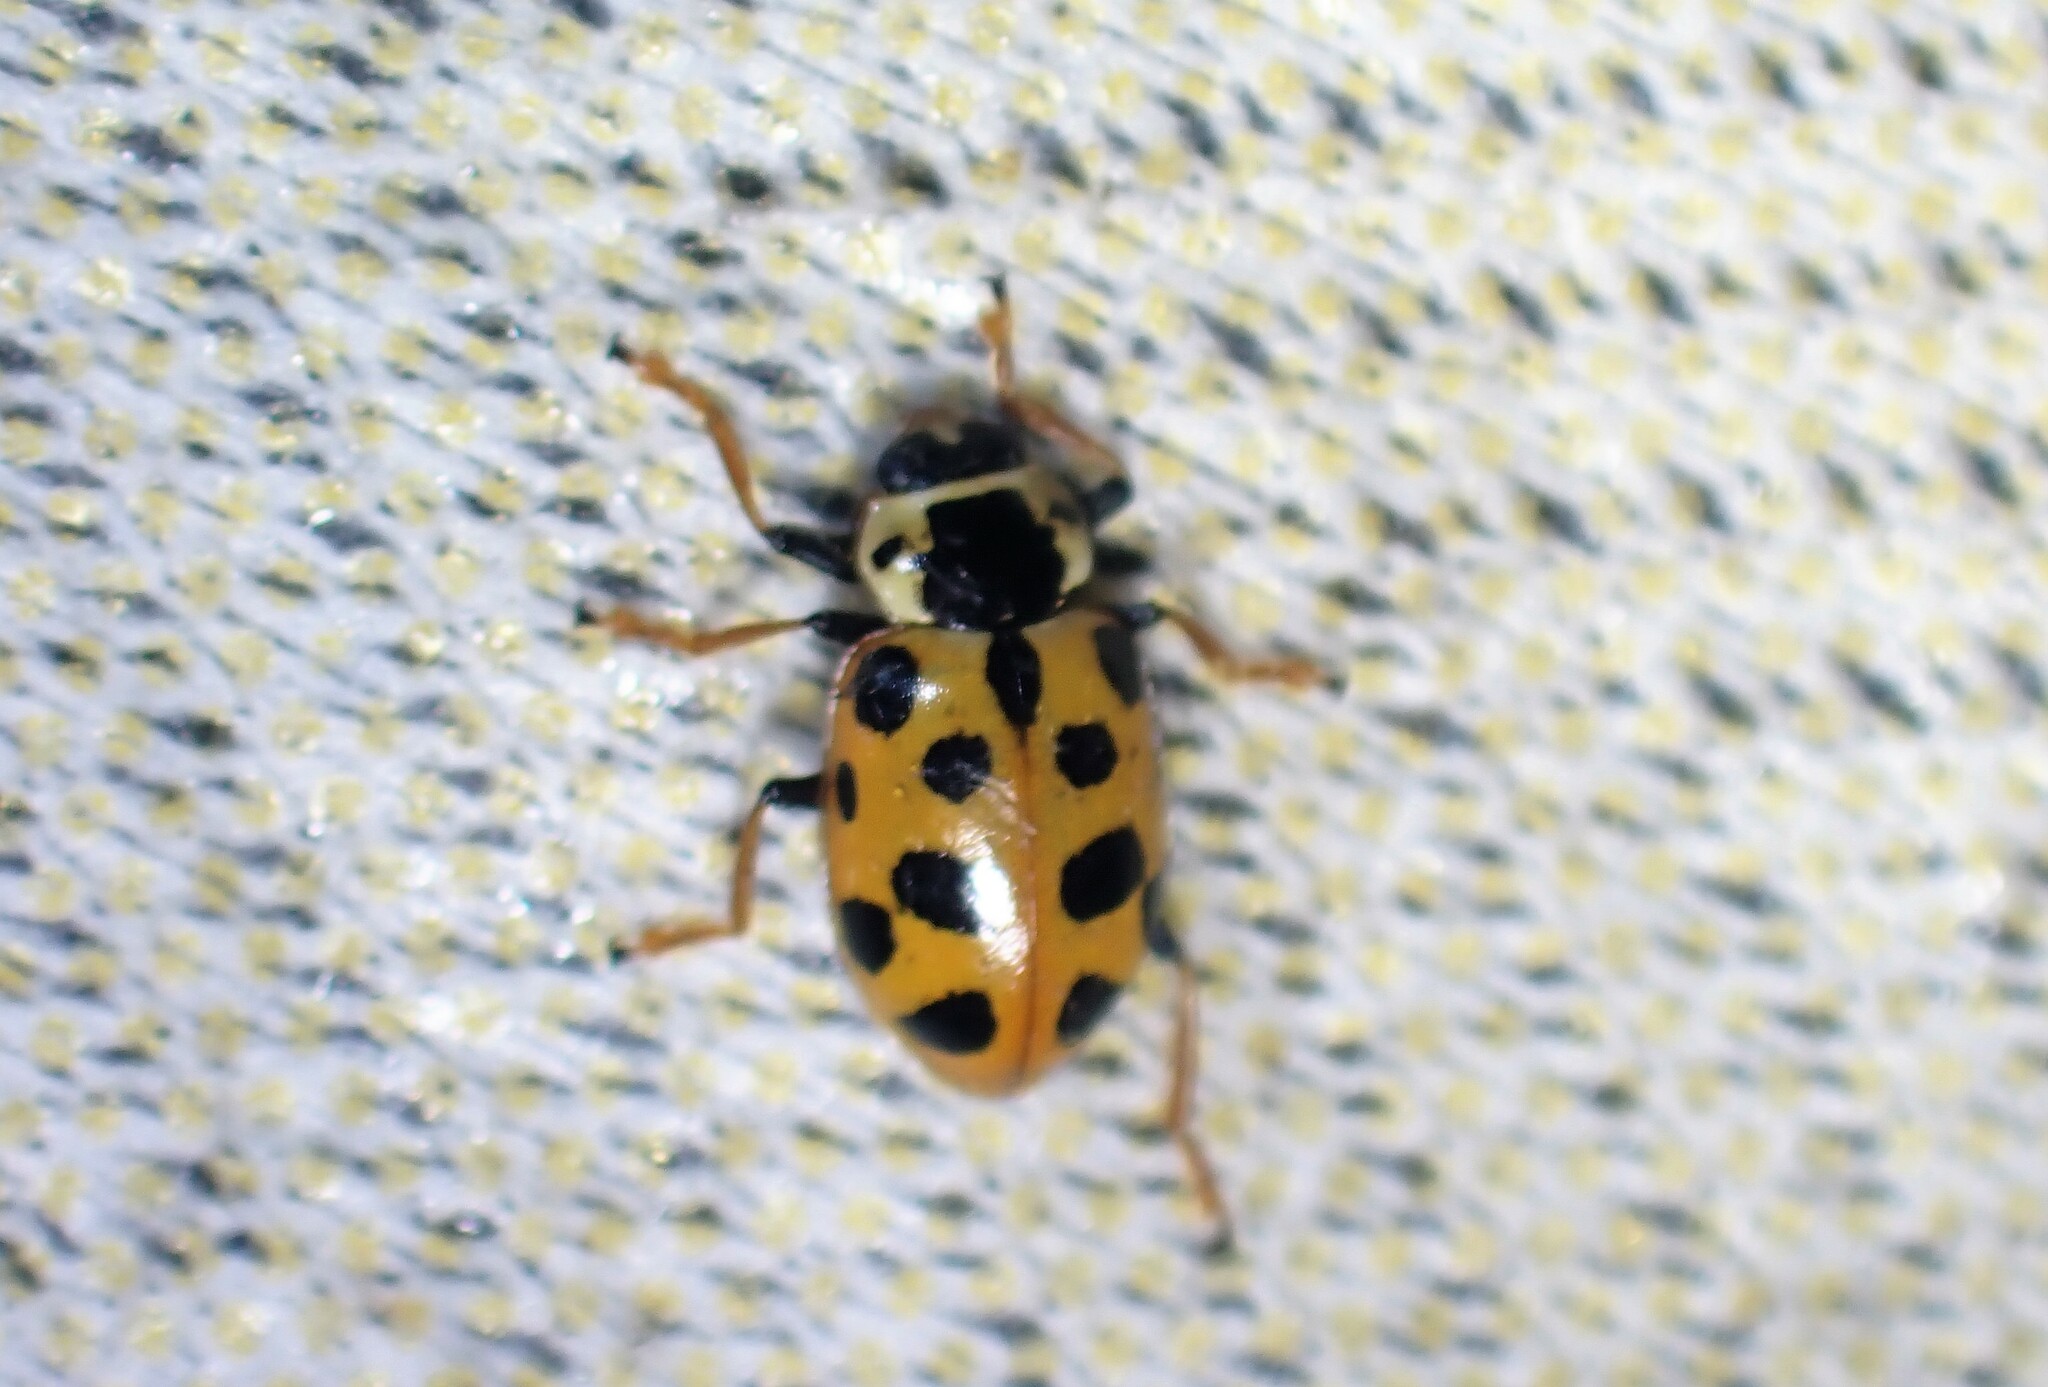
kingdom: Animalia
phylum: Arthropoda
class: Insecta
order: Coleoptera
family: Coccinellidae
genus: Hippodamia
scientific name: Hippodamia tredecimpunctata
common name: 13-spot ladybird
